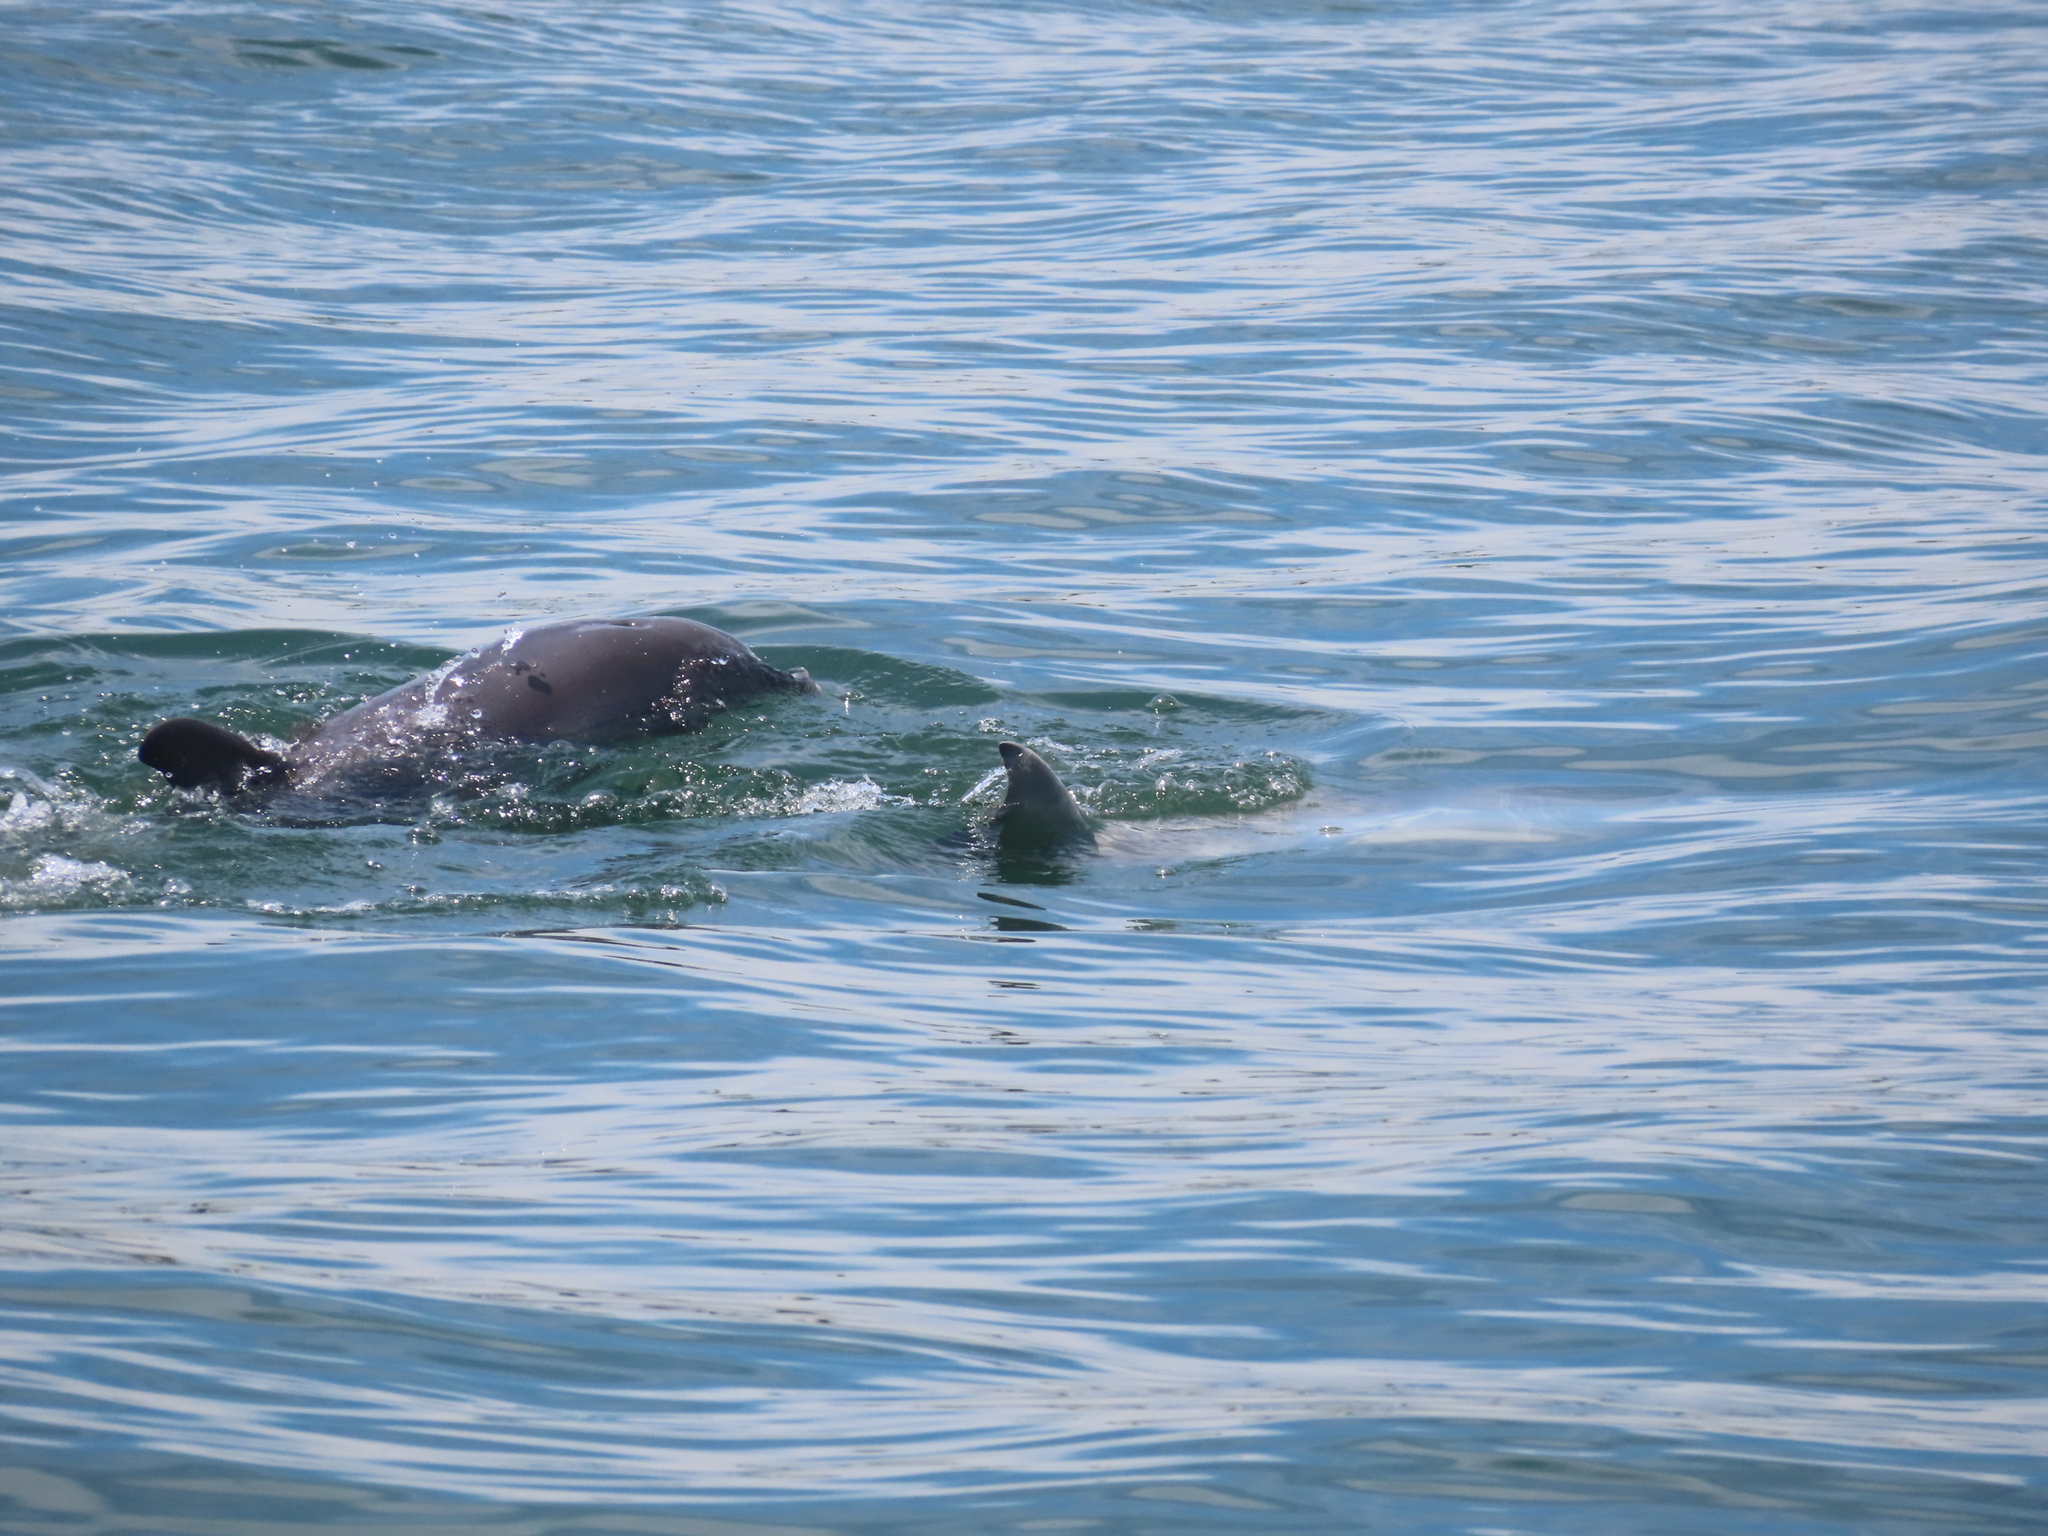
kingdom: Animalia
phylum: Chordata
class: Mammalia
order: Cetacea
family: Delphinidae
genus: Tursiops
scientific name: Tursiops truncatus
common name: Bottlenose dolphin
